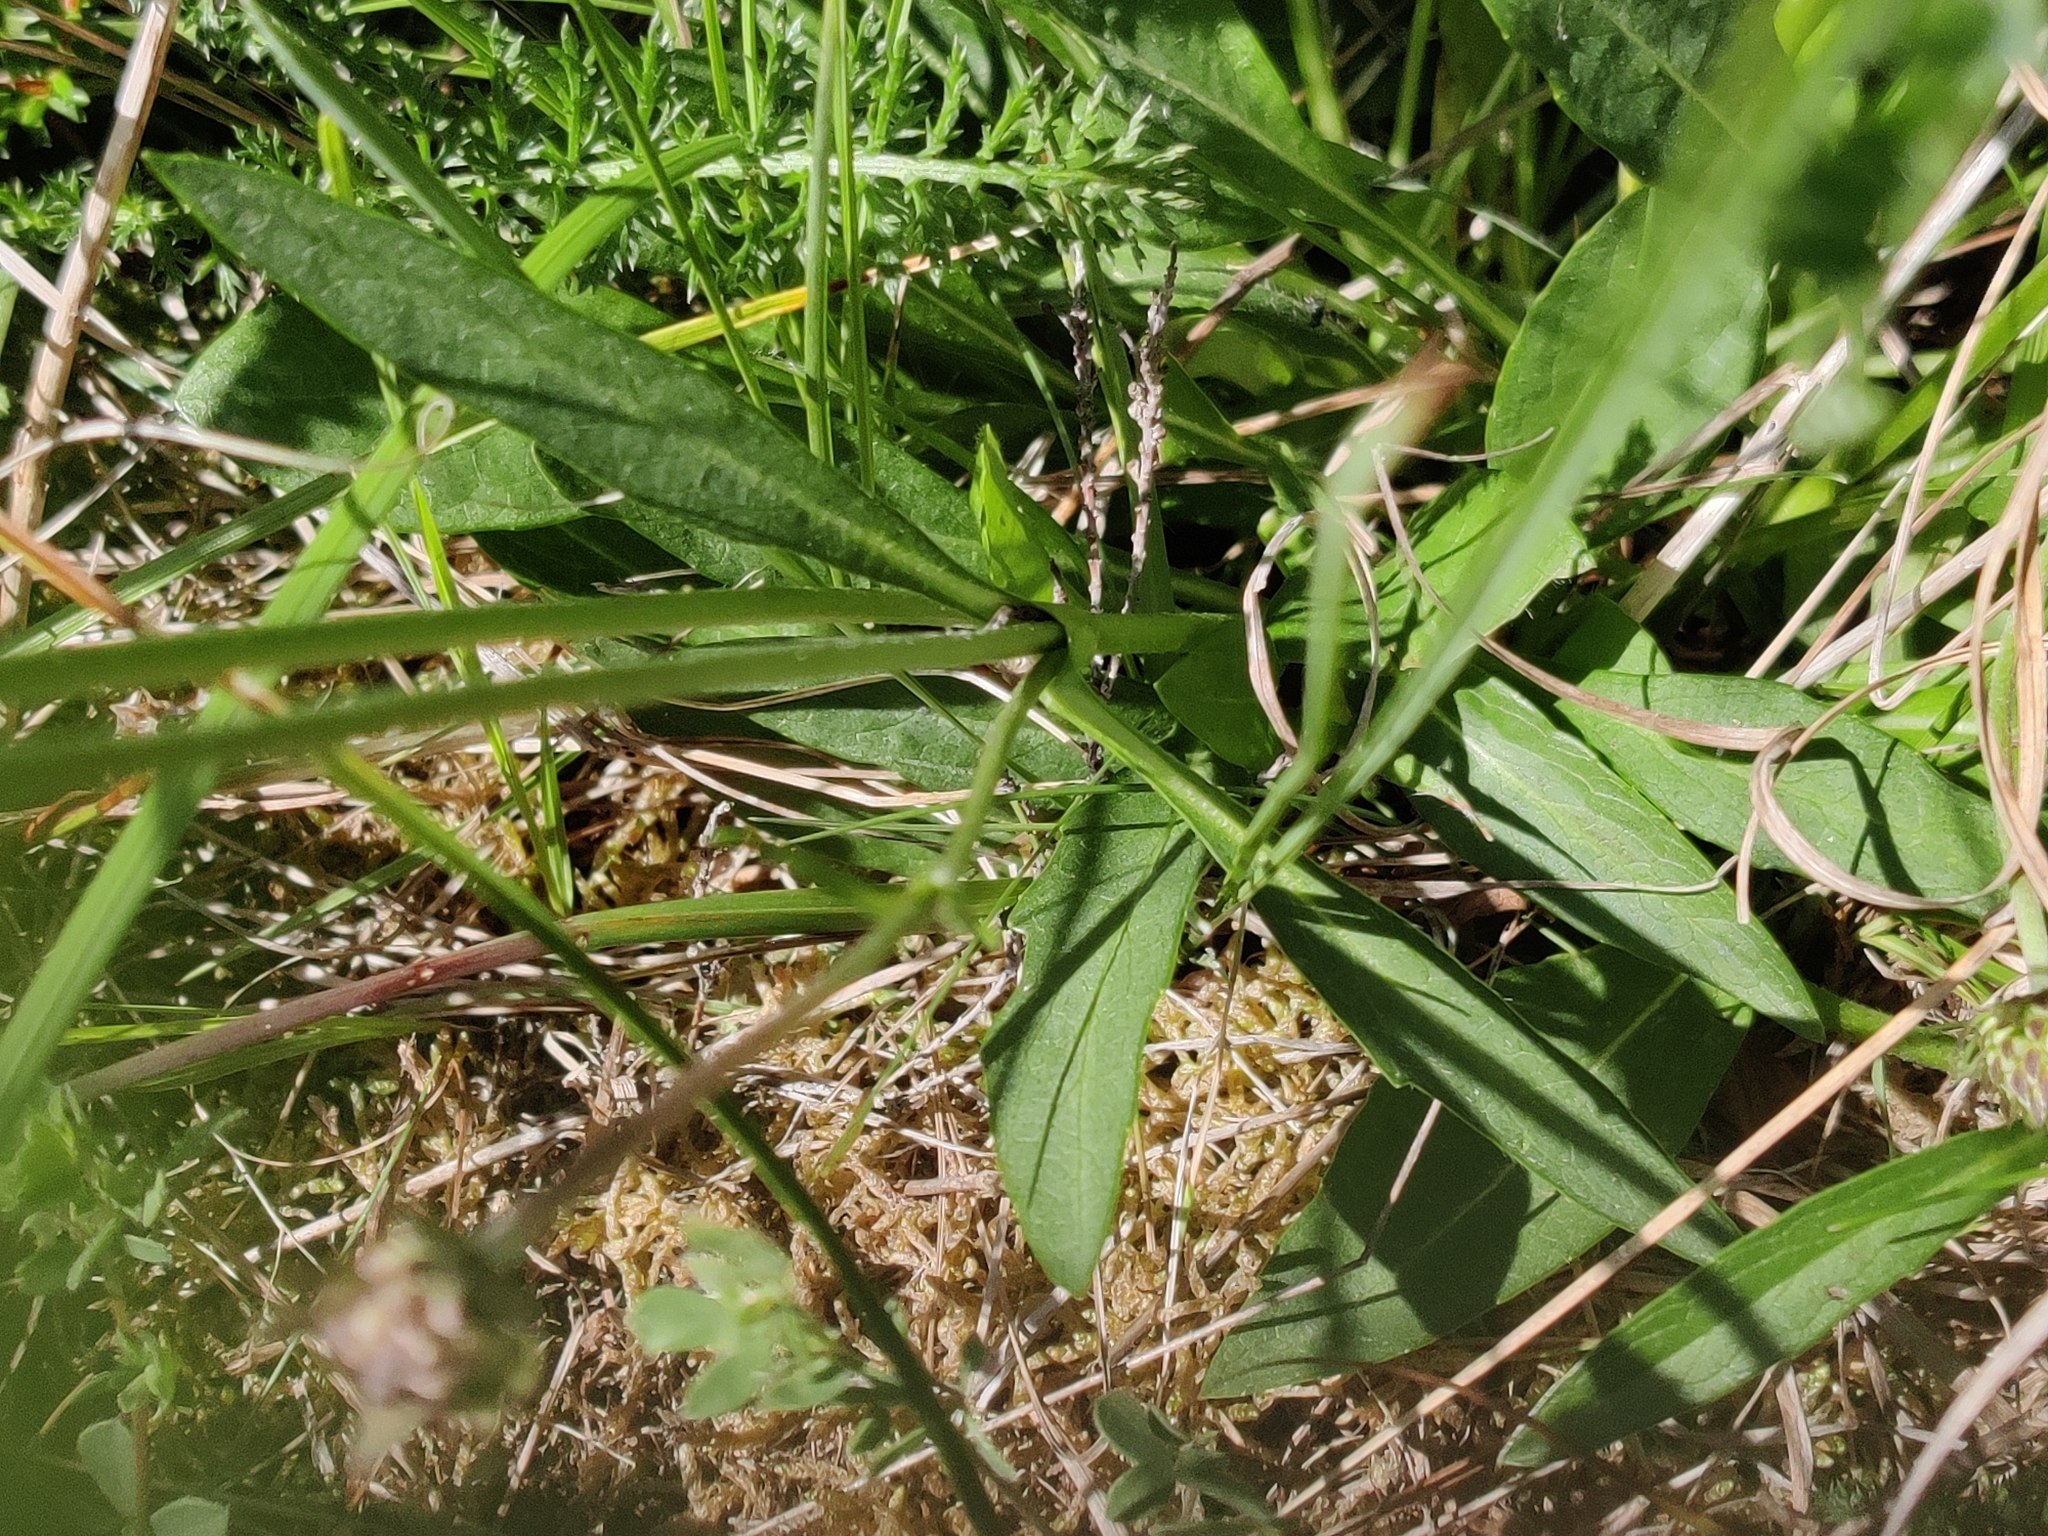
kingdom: Plantae
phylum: Tracheophyta
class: Magnoliopsida
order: Dipsacales
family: Caprifoliaceae
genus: Succisa
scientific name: Succisa pratensis
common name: Devil's-bit
